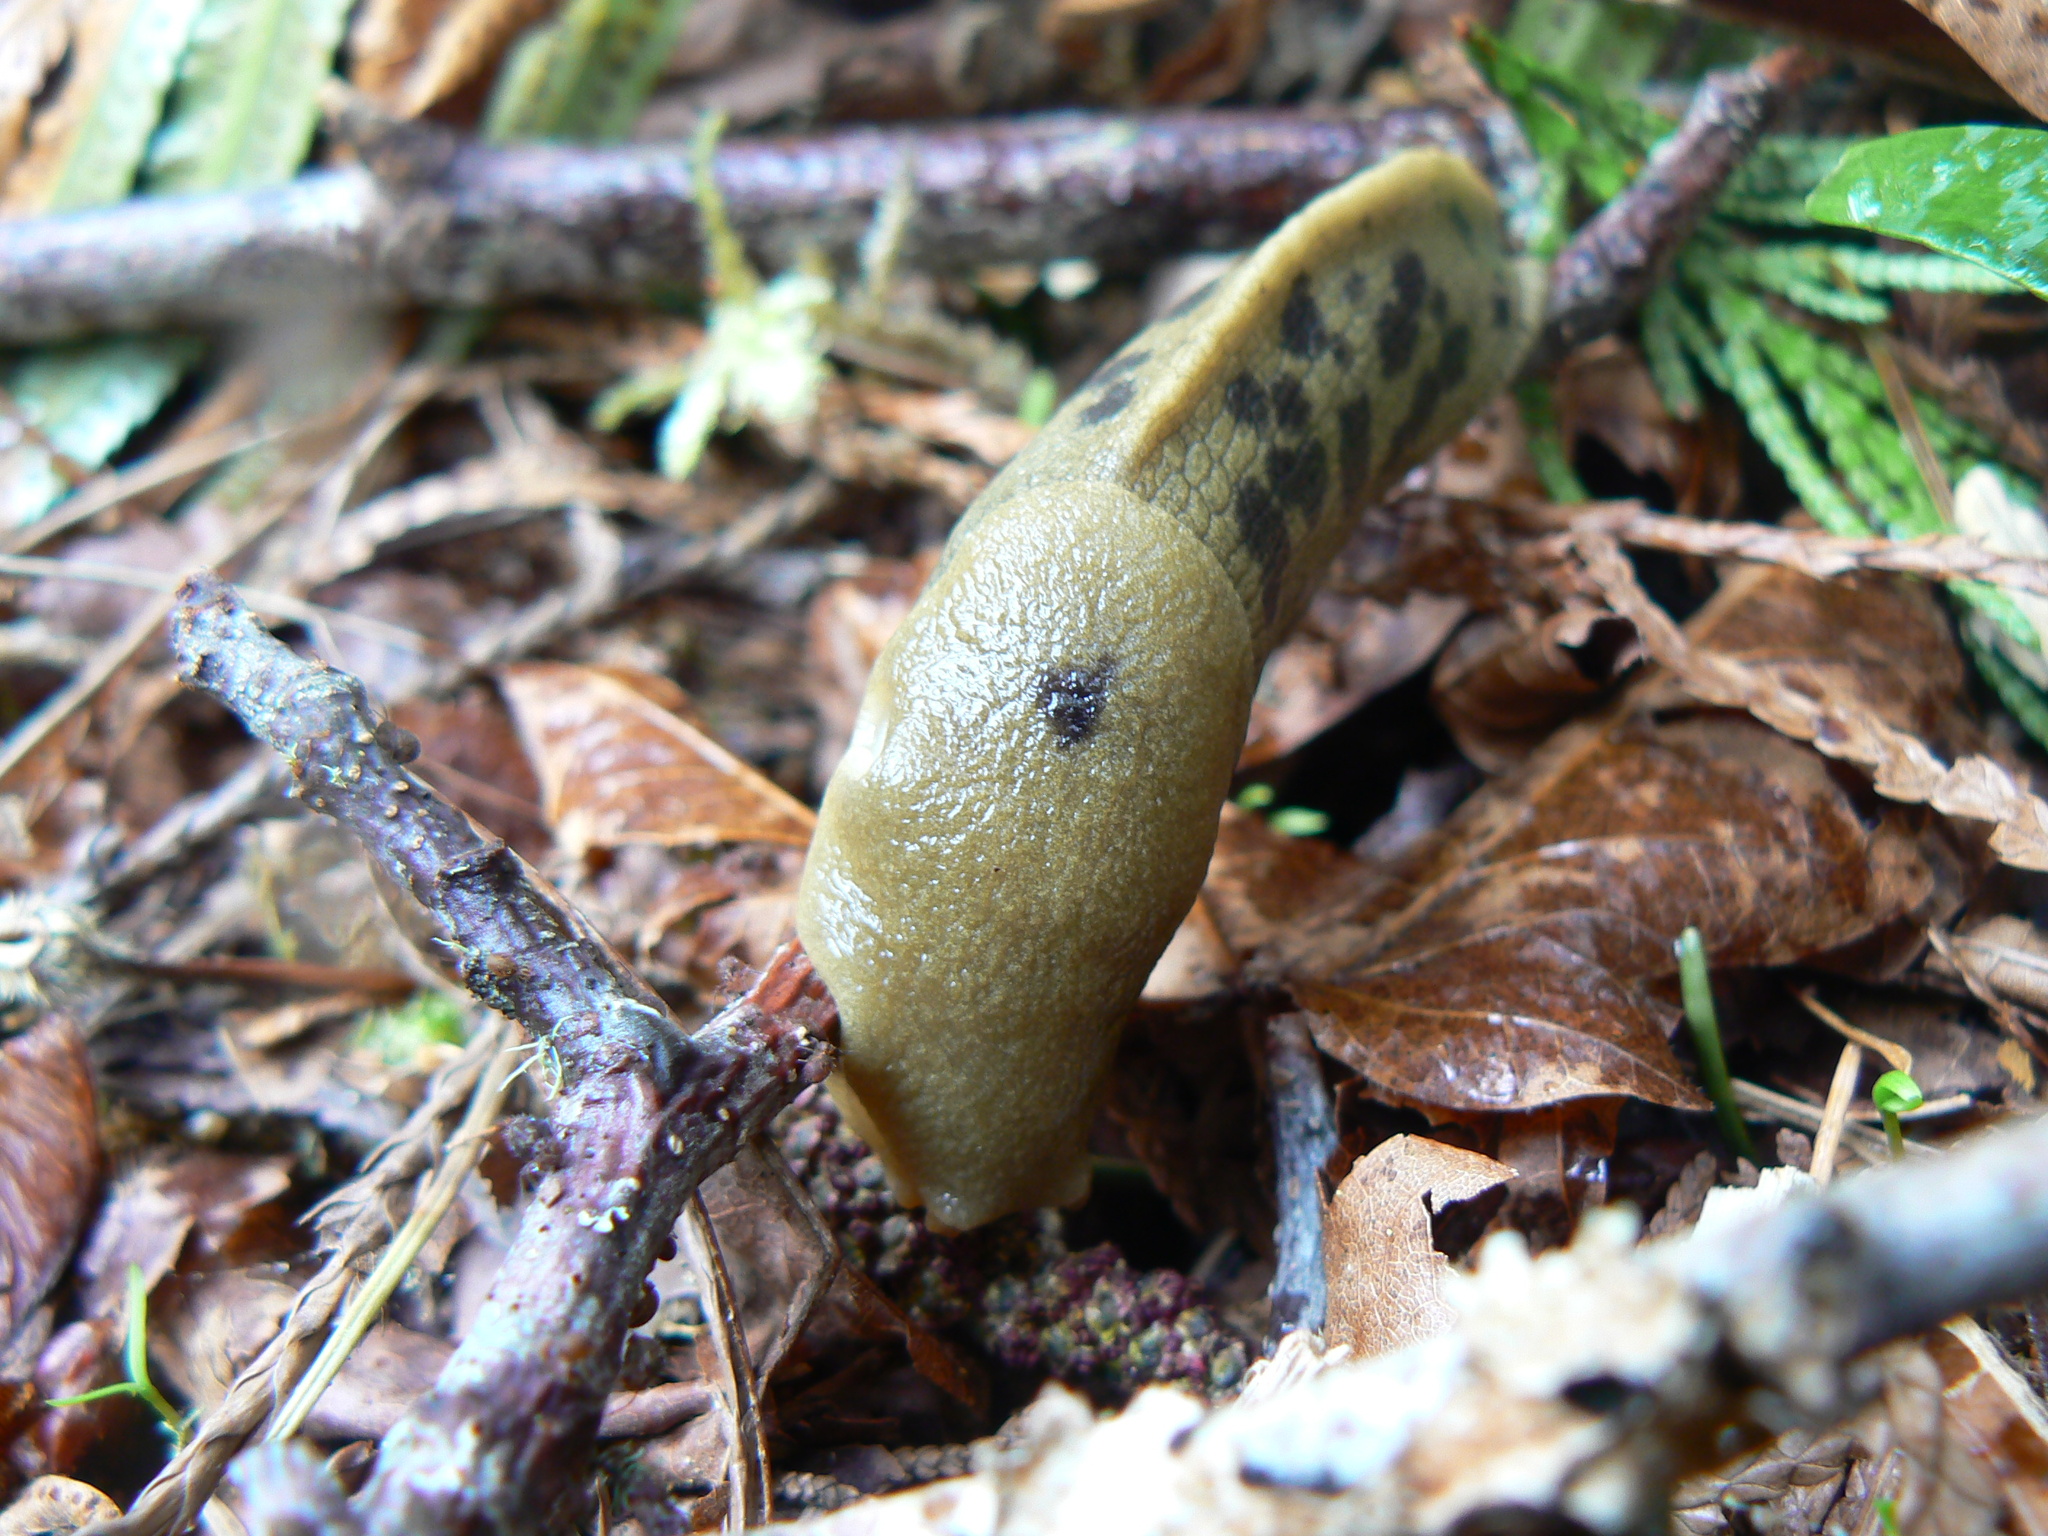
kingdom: Animalia
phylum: Mollusca
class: Gastropoda
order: Stylommatophora
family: Ariolimacidae
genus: Ariolimax
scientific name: Ariolimax columbianus
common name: Pacific banana slug
